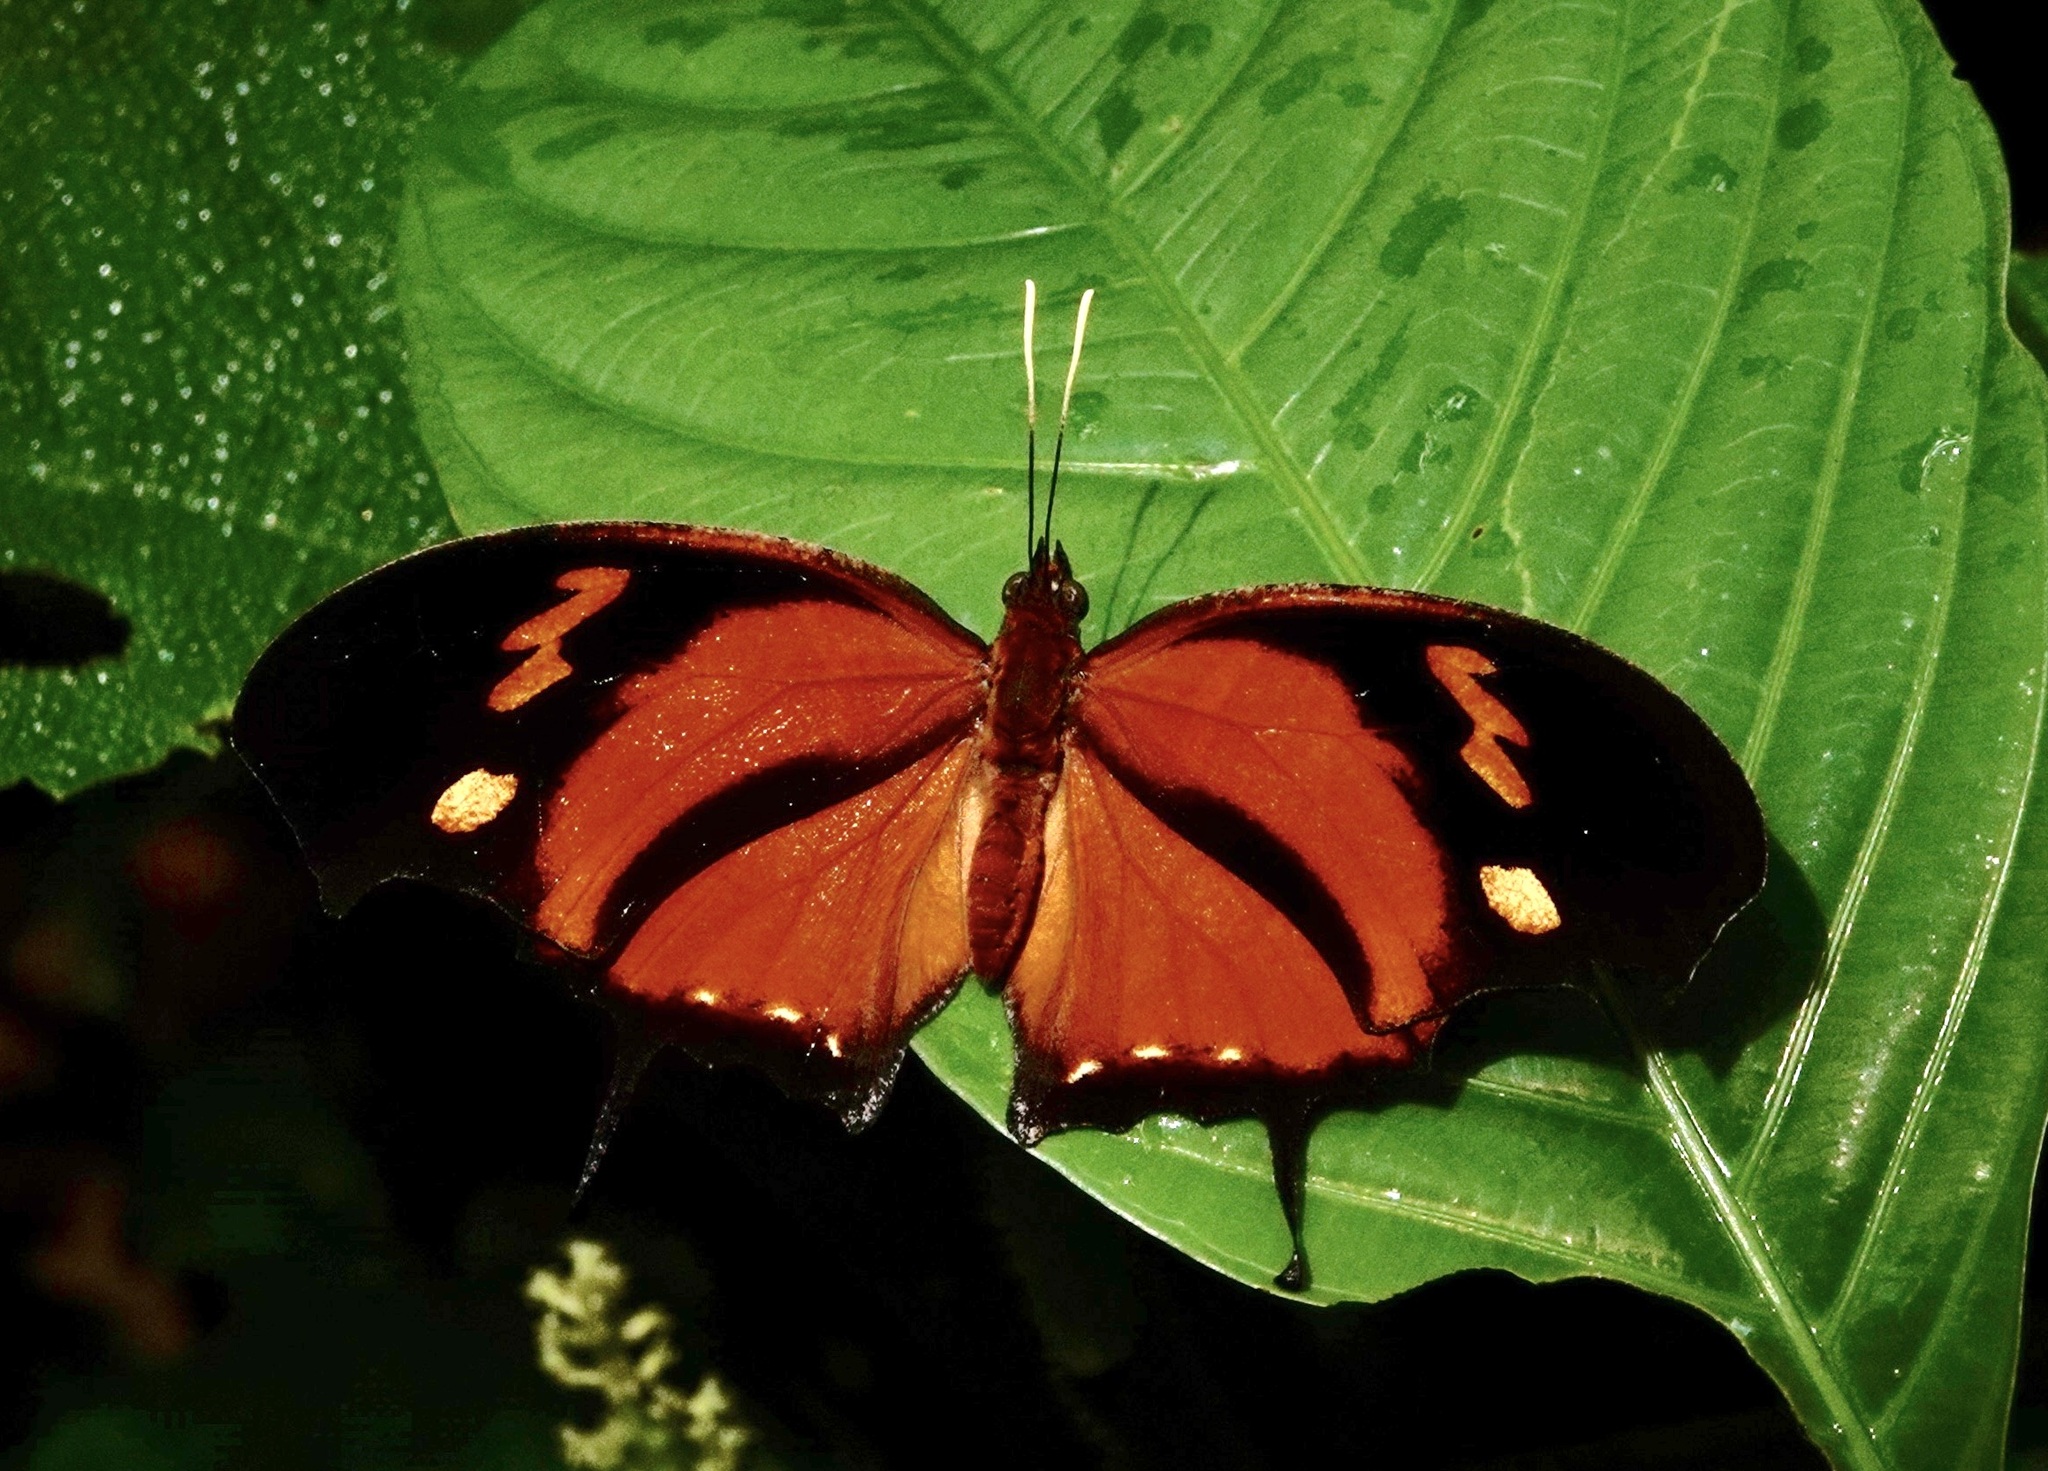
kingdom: Animalia
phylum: Arthropoda
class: Insecta
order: Lepidoptera
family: Nymphalidae
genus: Consul
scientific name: Consul fabius
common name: Tiger leafwing
